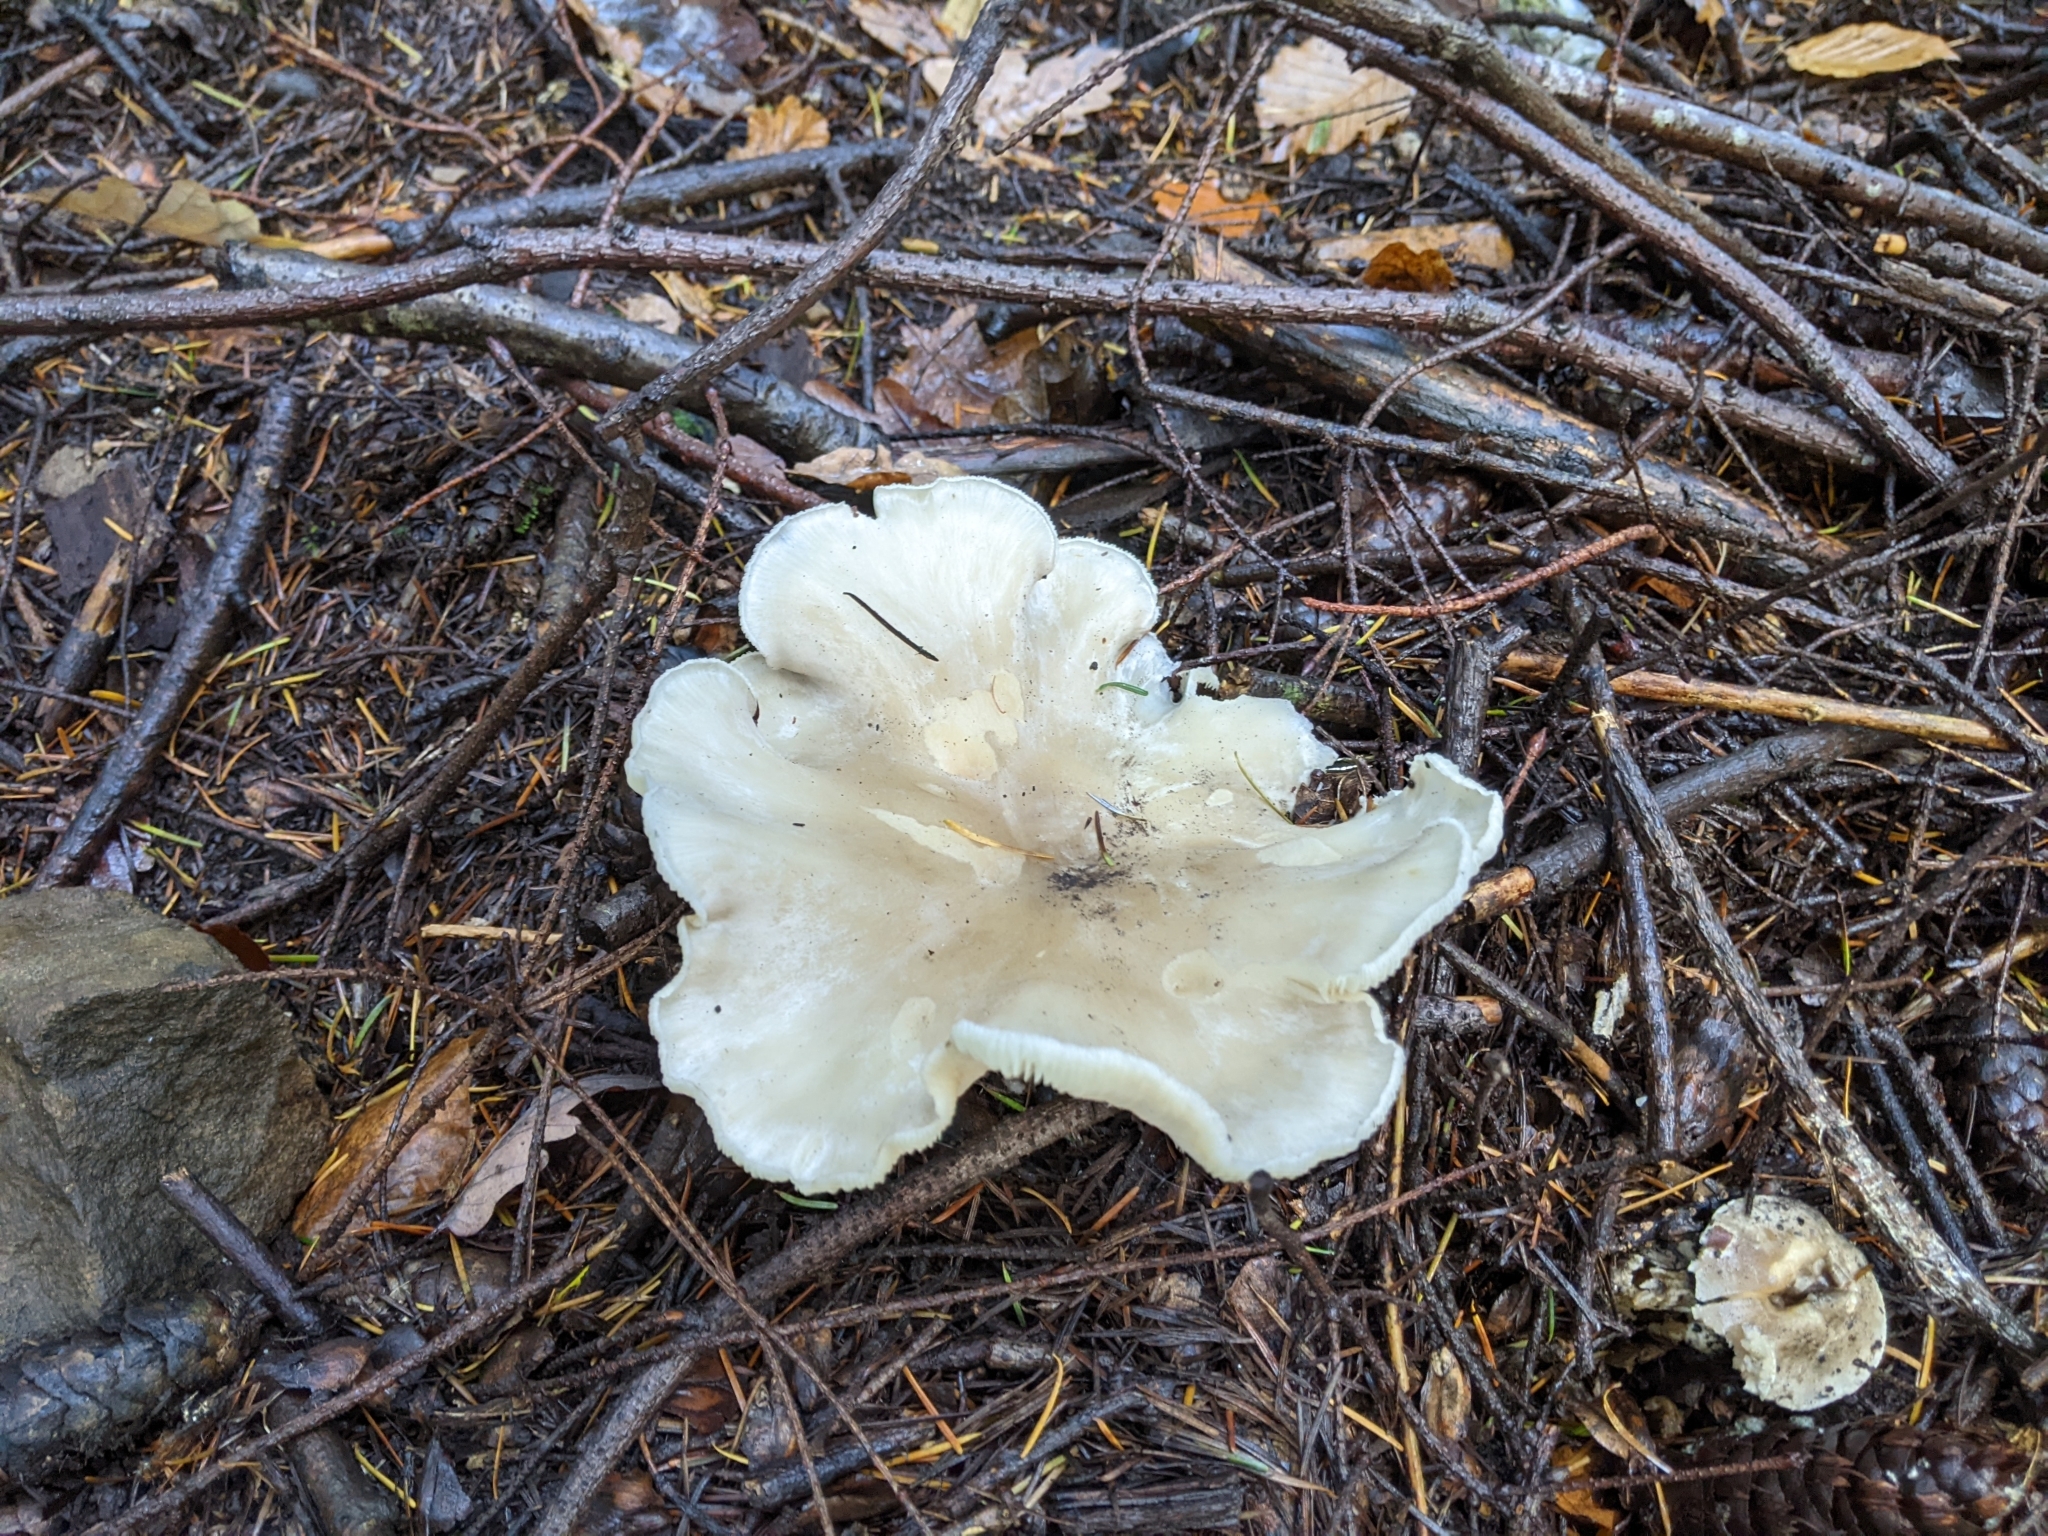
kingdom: Fungi
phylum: Basidiomycota
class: Agaricomycetes
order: Agaricales
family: Tricholomataceae
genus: Clitocybe
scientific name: Clitocybe nebularis
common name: Clouded agaric
